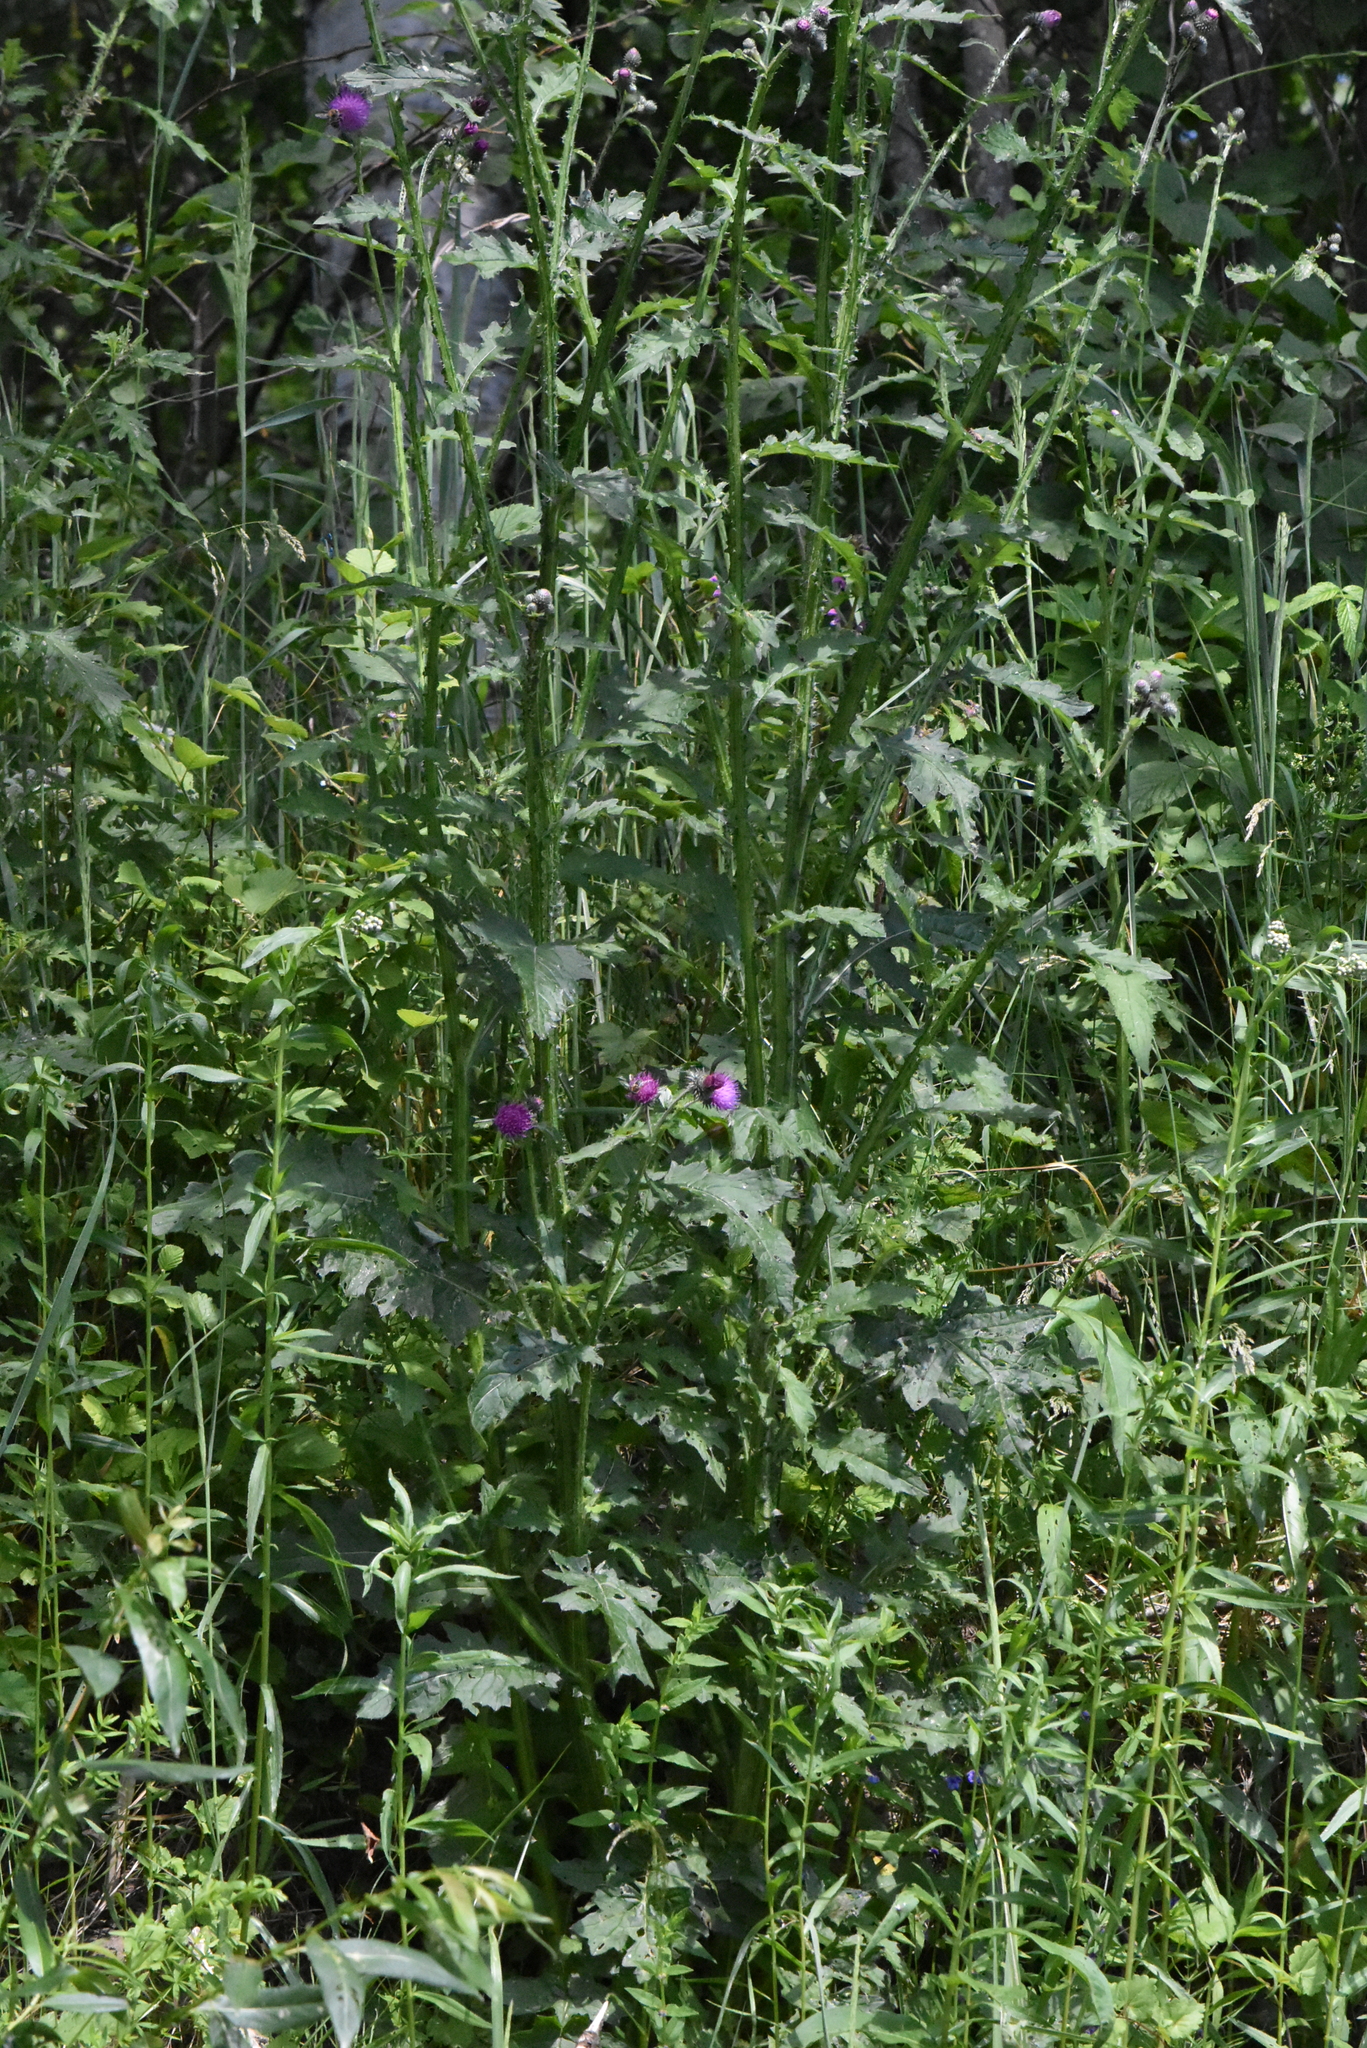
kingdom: Plantae
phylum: Tracheophyta
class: Magnoliopsida
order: Asterales
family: Asteraceae
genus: Carduus
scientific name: Carduus crispus
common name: Welted thistle
